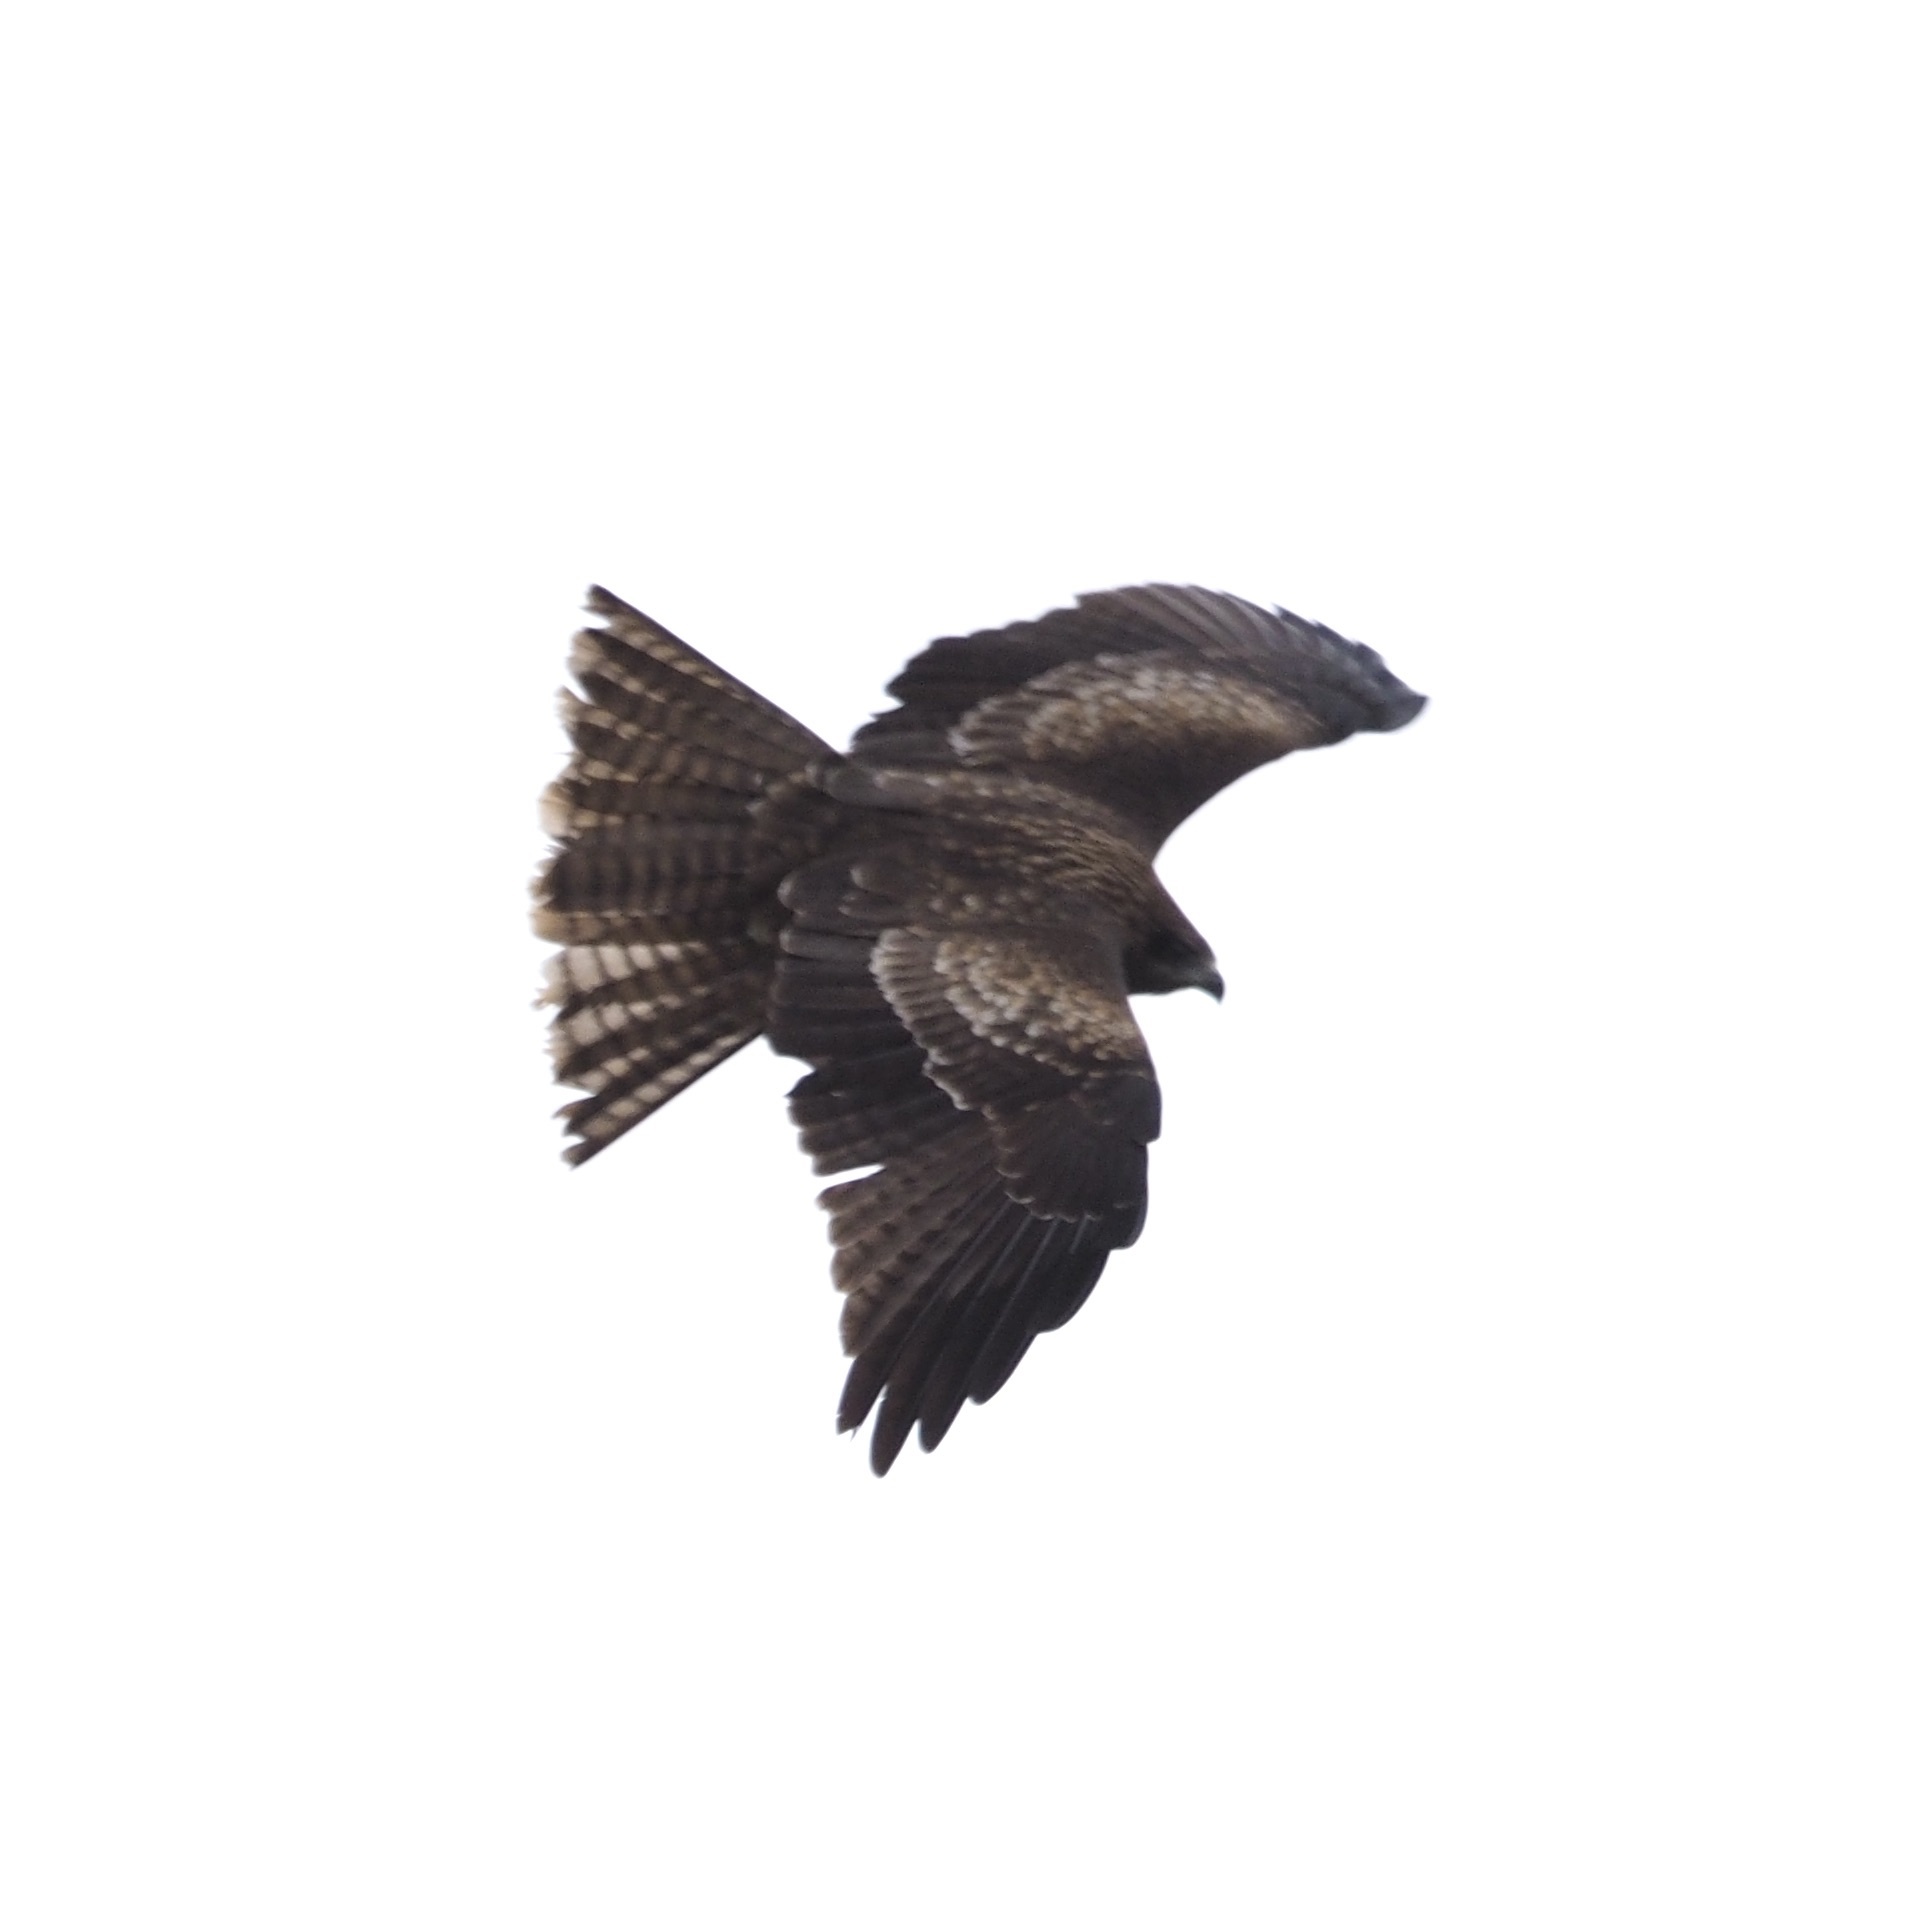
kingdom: Animalia
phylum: Chordata
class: Aves
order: Accipitriformes
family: Accipitridae
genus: Milvus
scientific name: Milvus migrans
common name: Black kite
